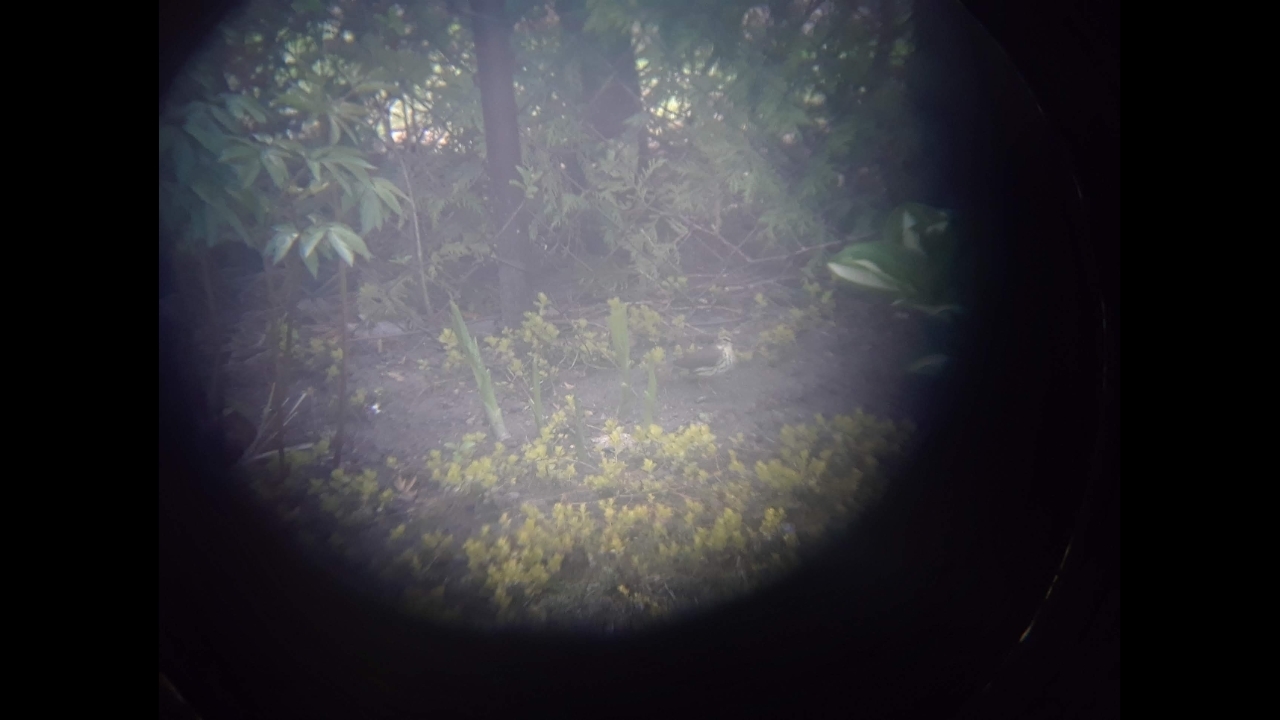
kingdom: Animalia
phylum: Chordata
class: Aves
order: Passeriformes
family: Parulidae
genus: Parkesia
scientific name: Parkesia noveboracensis
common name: Northern waterthrush
